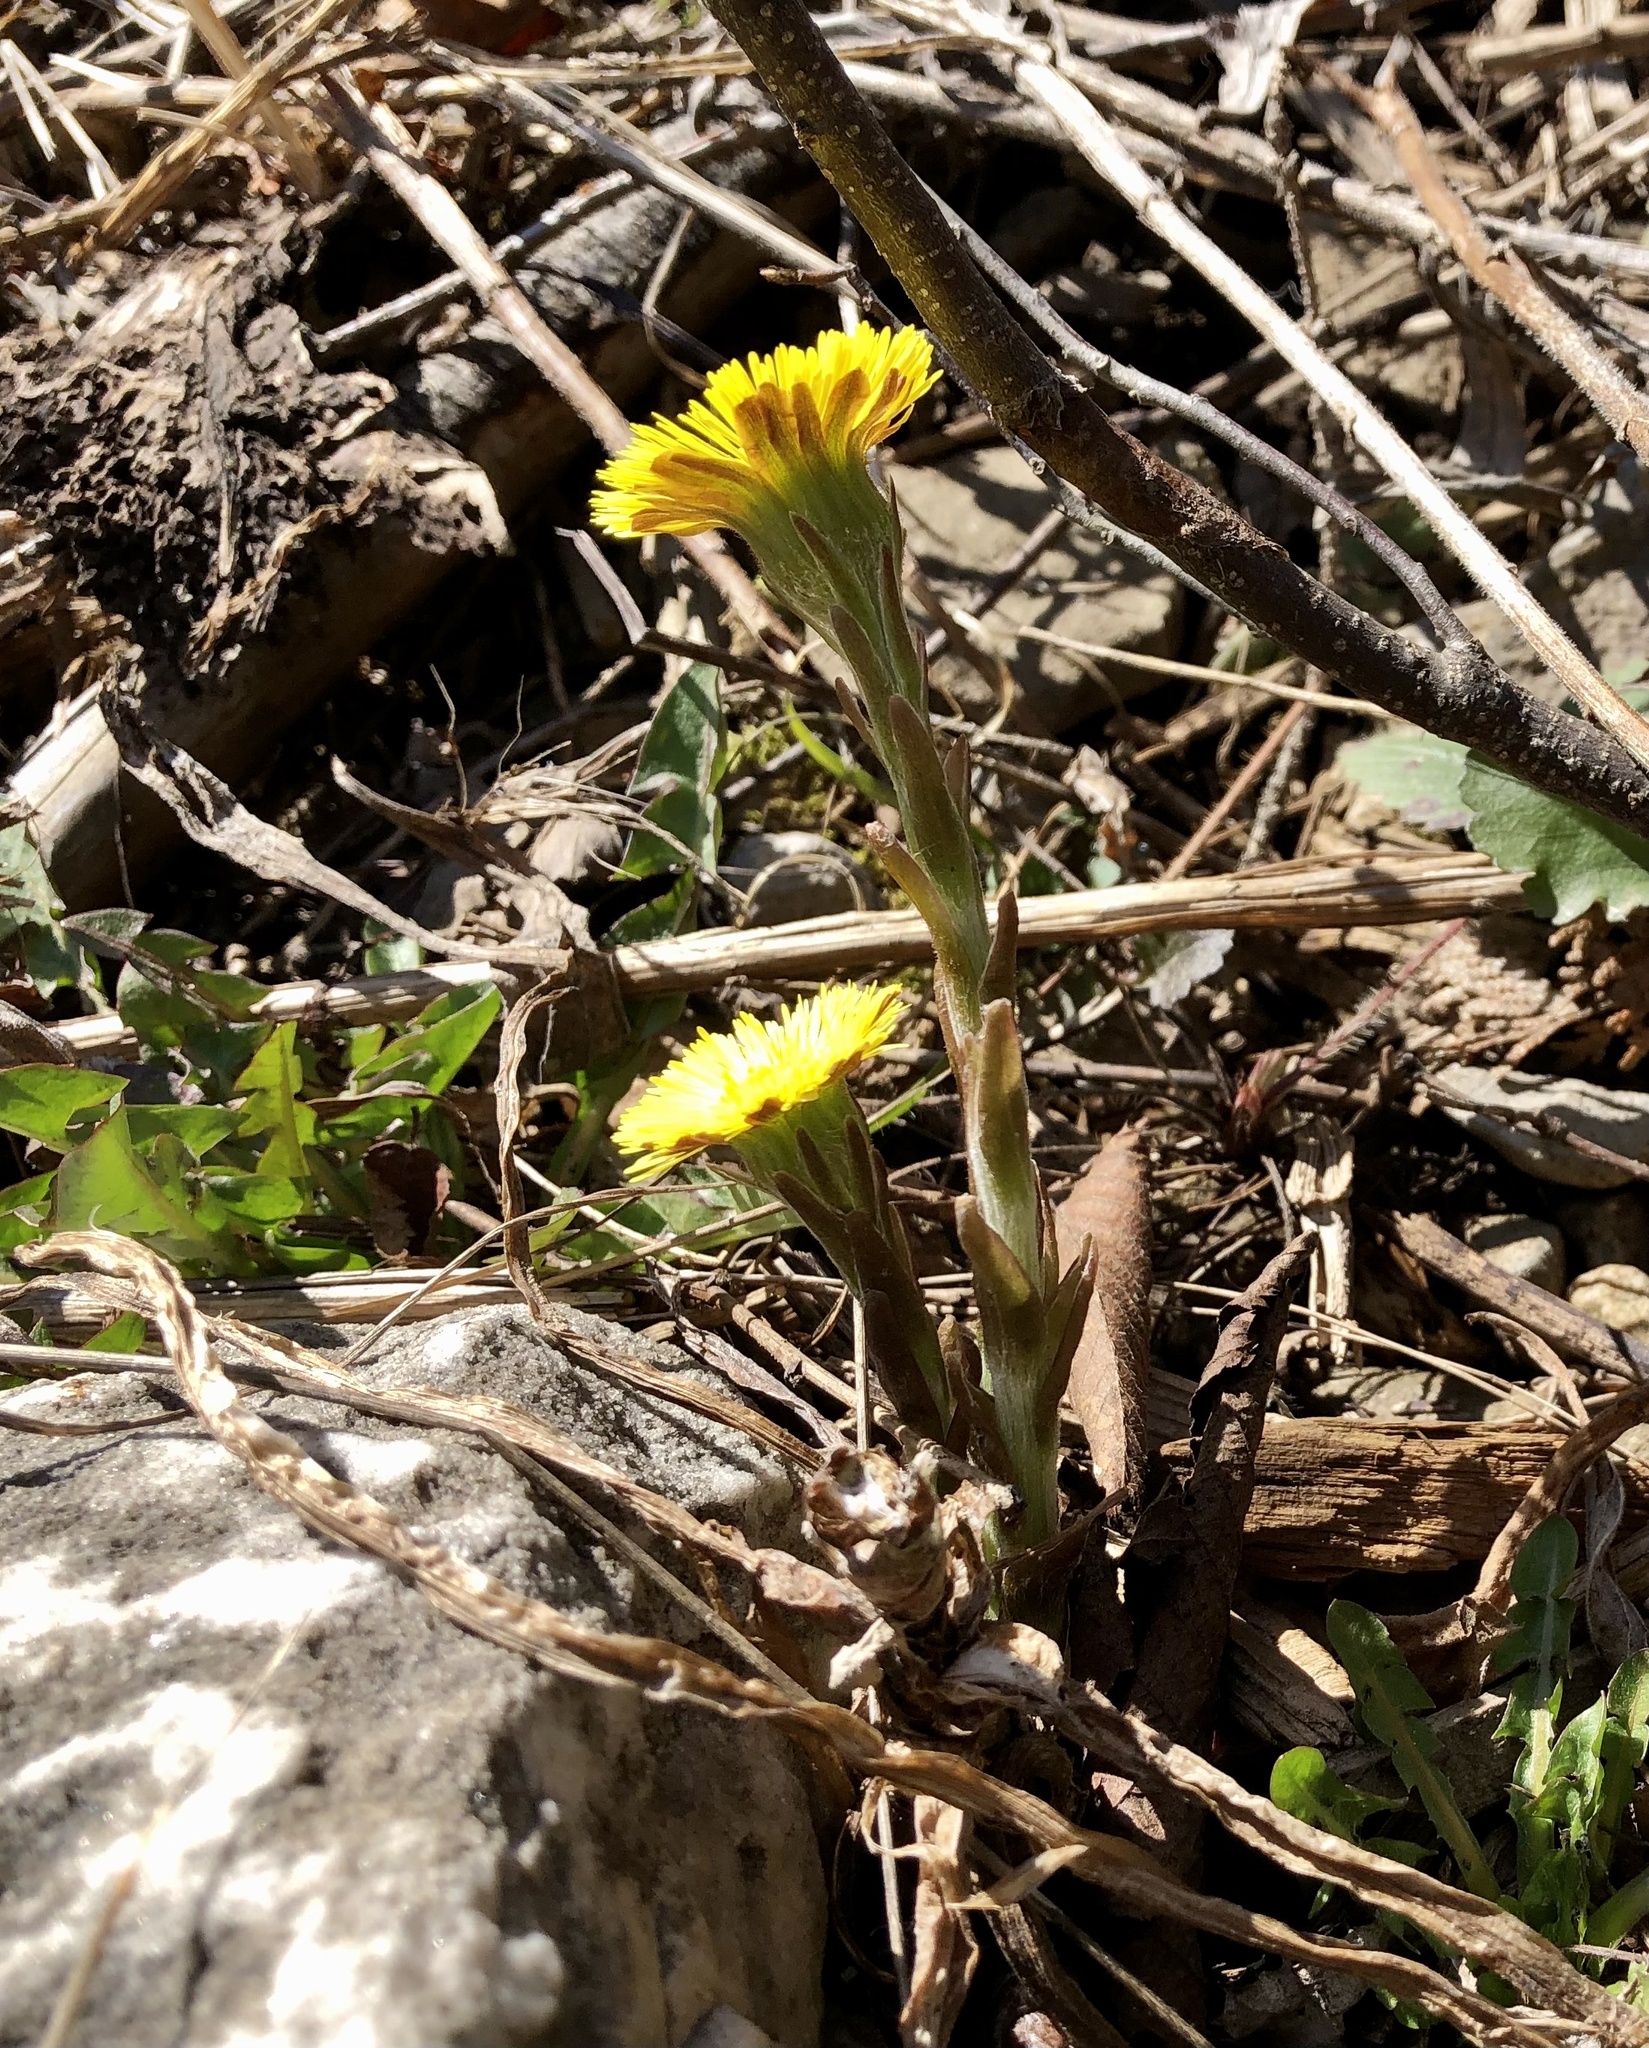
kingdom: Plantae
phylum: Tracheophyta
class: Magnoliopsida
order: Asterales
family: Asteraceae
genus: Tussilago
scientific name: Tussilago farfara
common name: Coltsfoot
